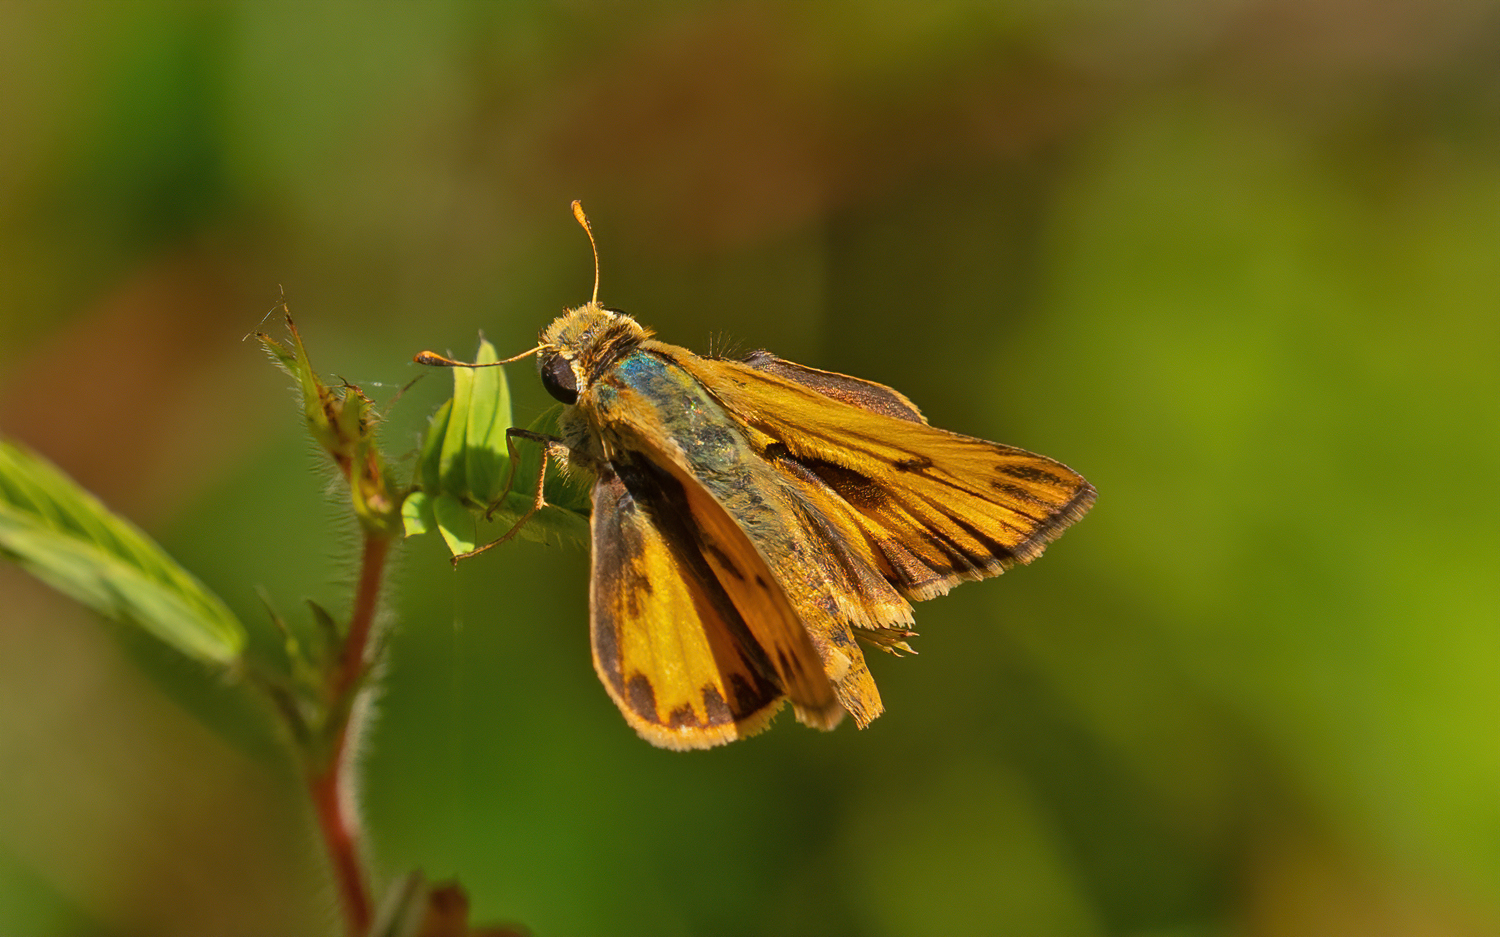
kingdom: Animalia
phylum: Arthropoda
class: Insecta
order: Lepidoptera
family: Hesperiidae
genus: Hylephila
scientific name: Hylephila phyleus
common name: Fiery skipper
